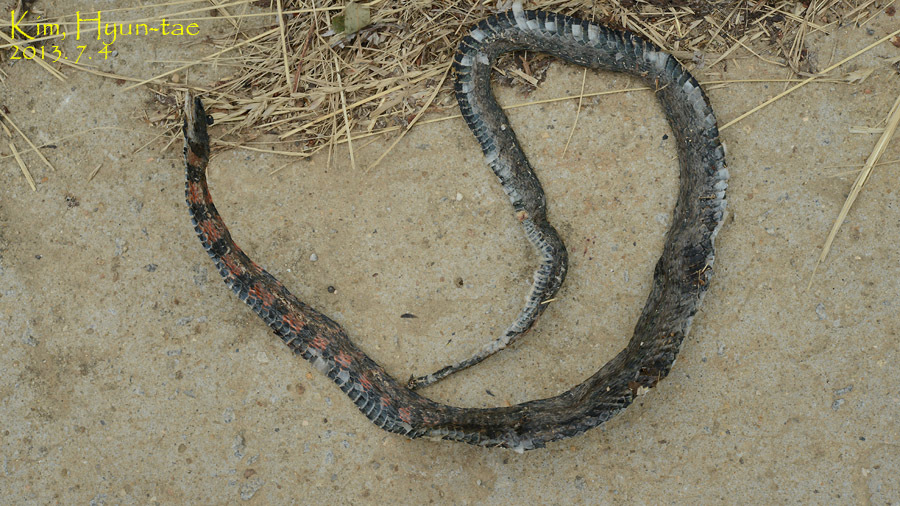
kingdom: Animalia
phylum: Chordata
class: Squamata
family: Colubridae
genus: Rhabdophis
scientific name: Rhabdophis tigrinus
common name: Tiger keelback
